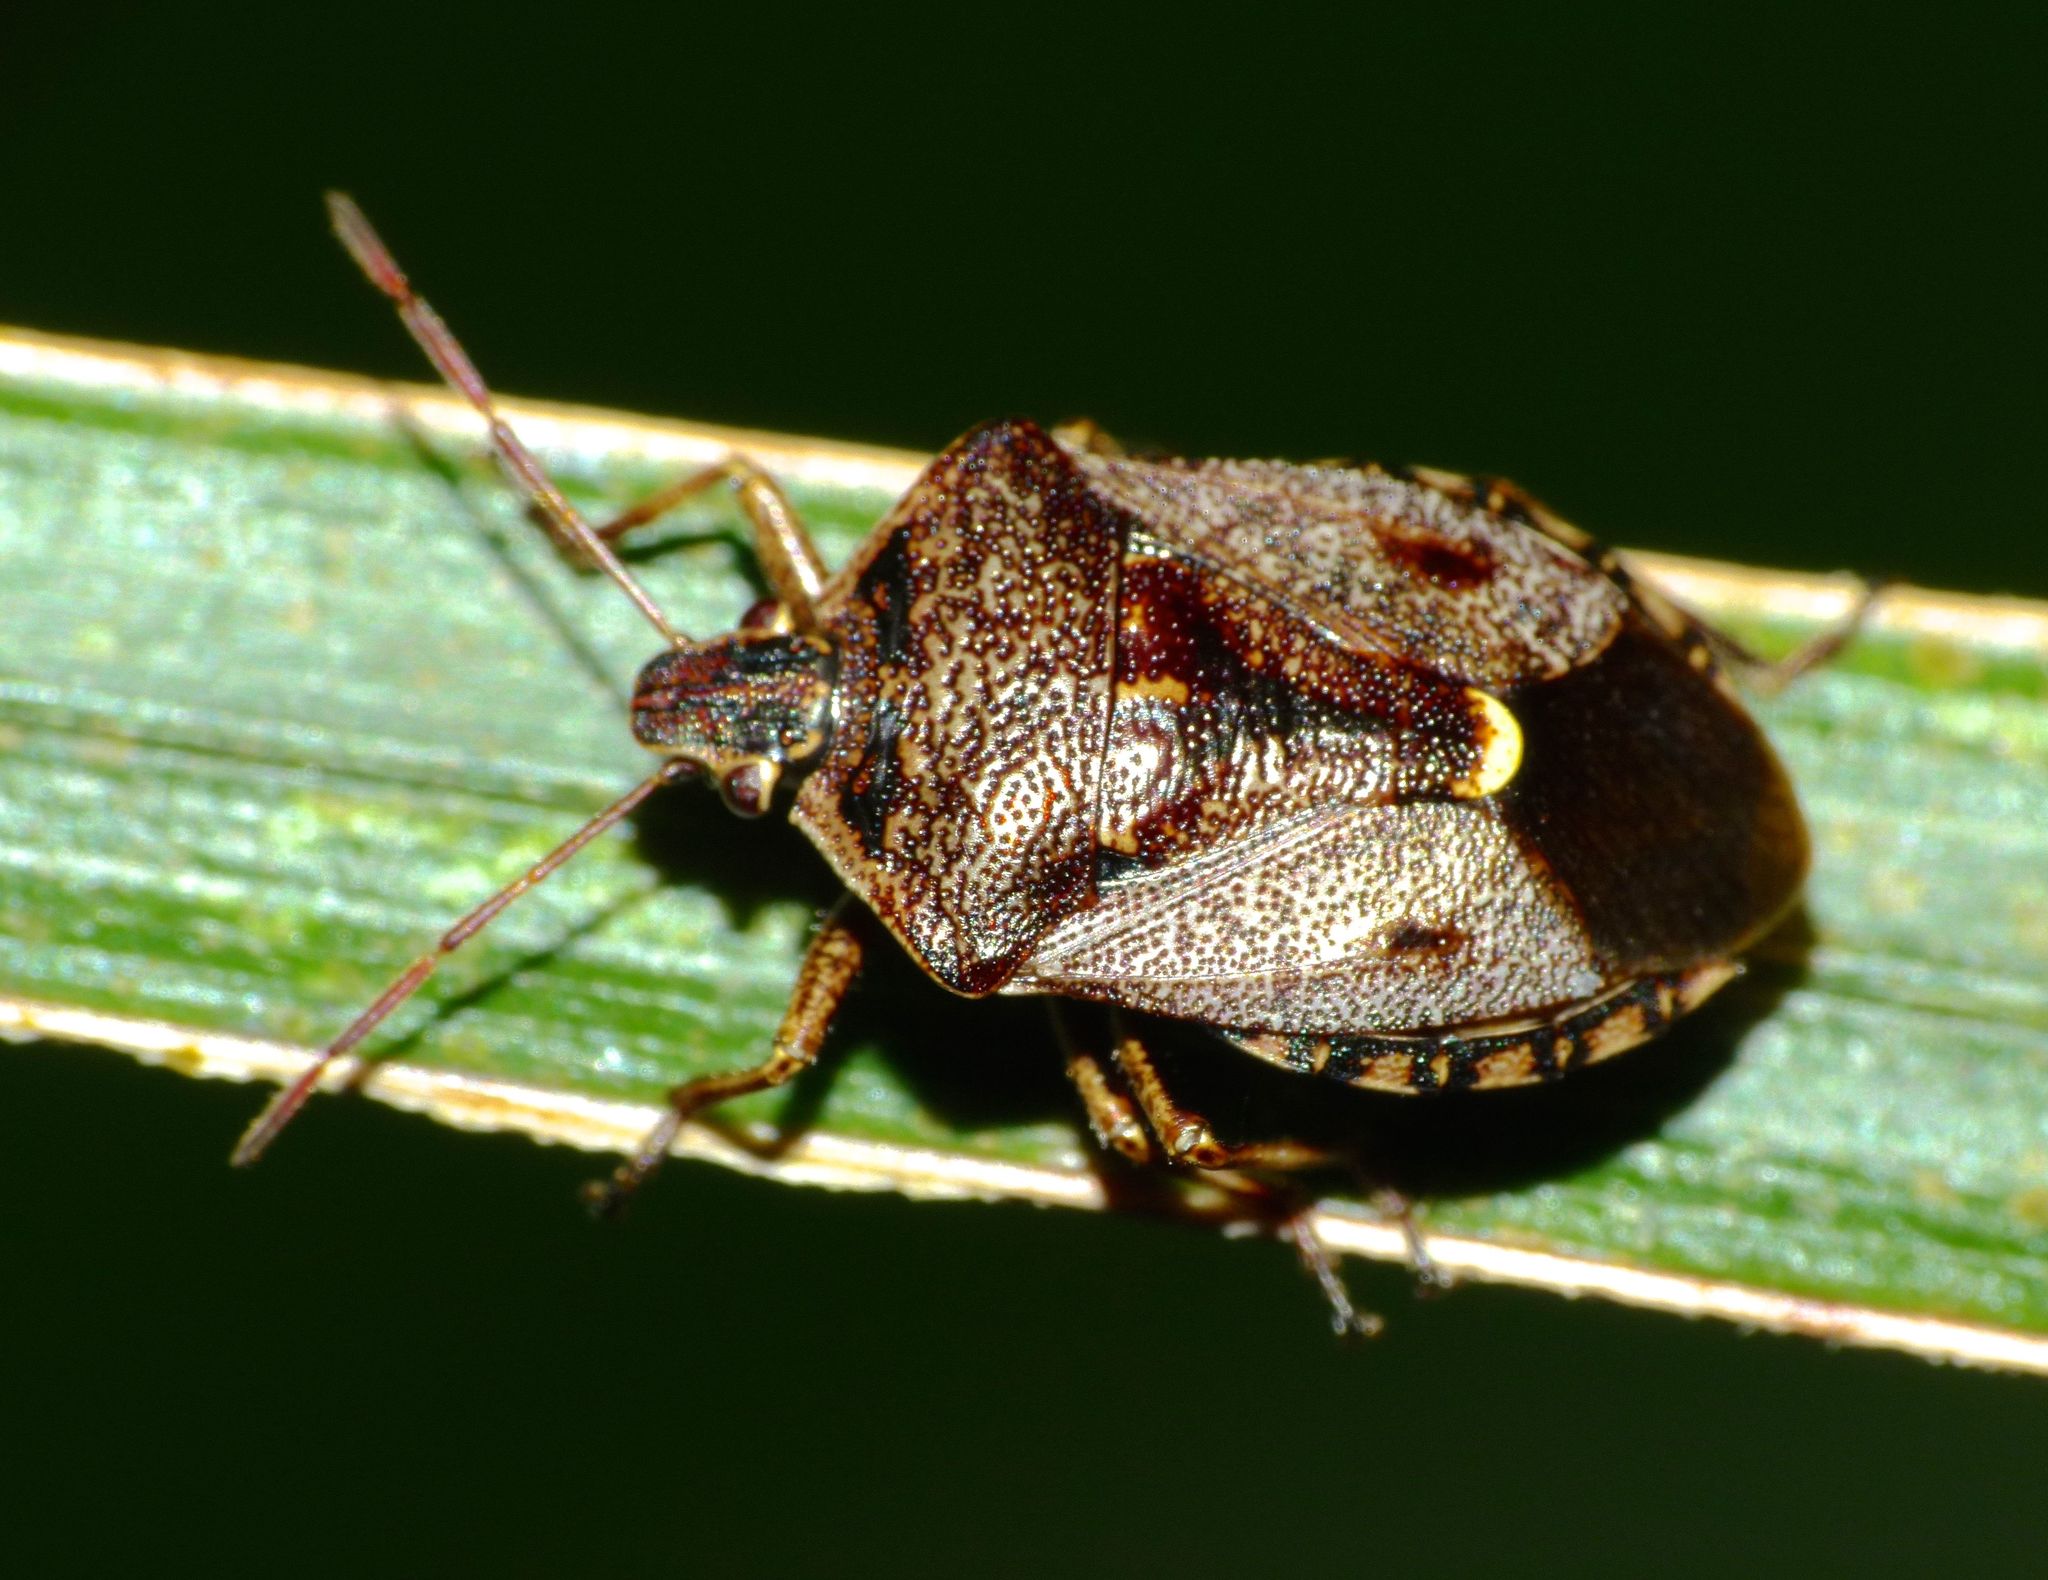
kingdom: Animalia
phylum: Arthropoda
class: Insecta
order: Hemiptera
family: Pentatomidae
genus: Cermatulus
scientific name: Cermatulus nasalis
